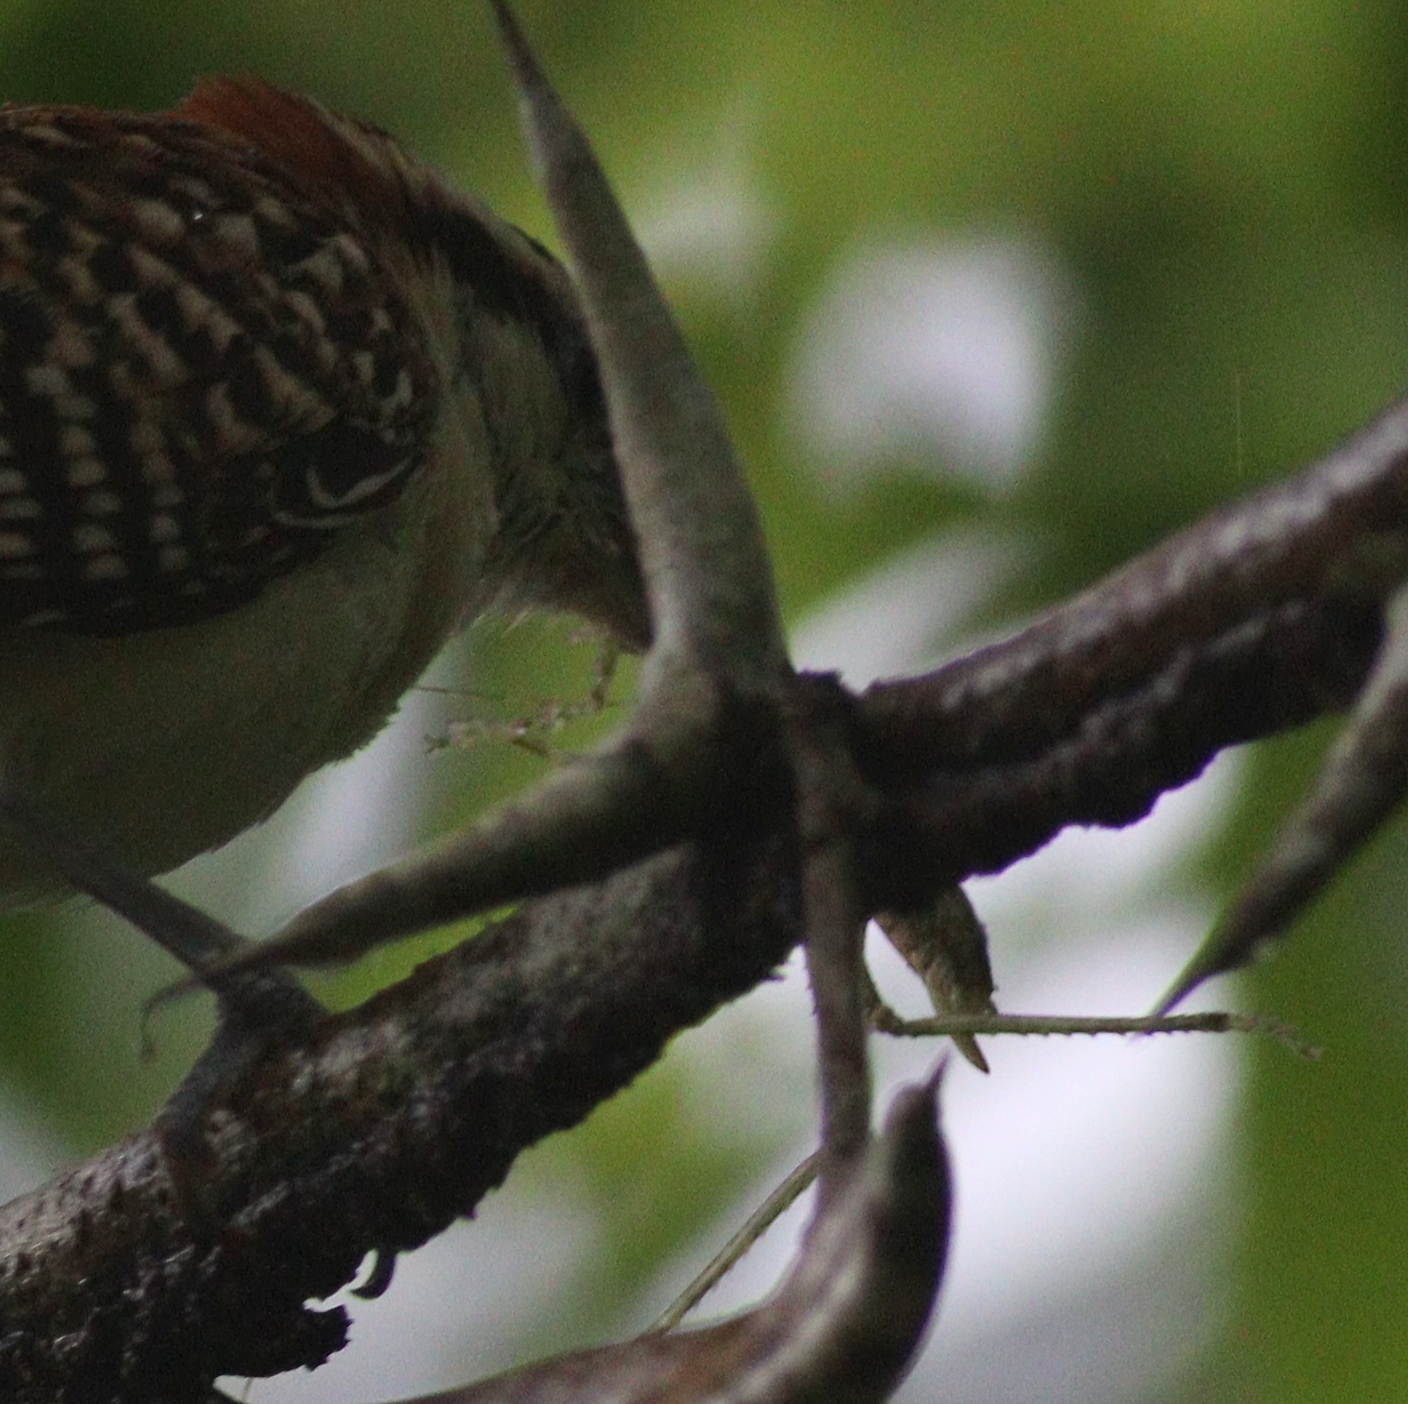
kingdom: Animalia
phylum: Chordata
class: Aves
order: Passeriformes
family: Troglodytidae
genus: Campylorhynchus
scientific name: Campylorhynchus rufinucha
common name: Rufous-naped wren
